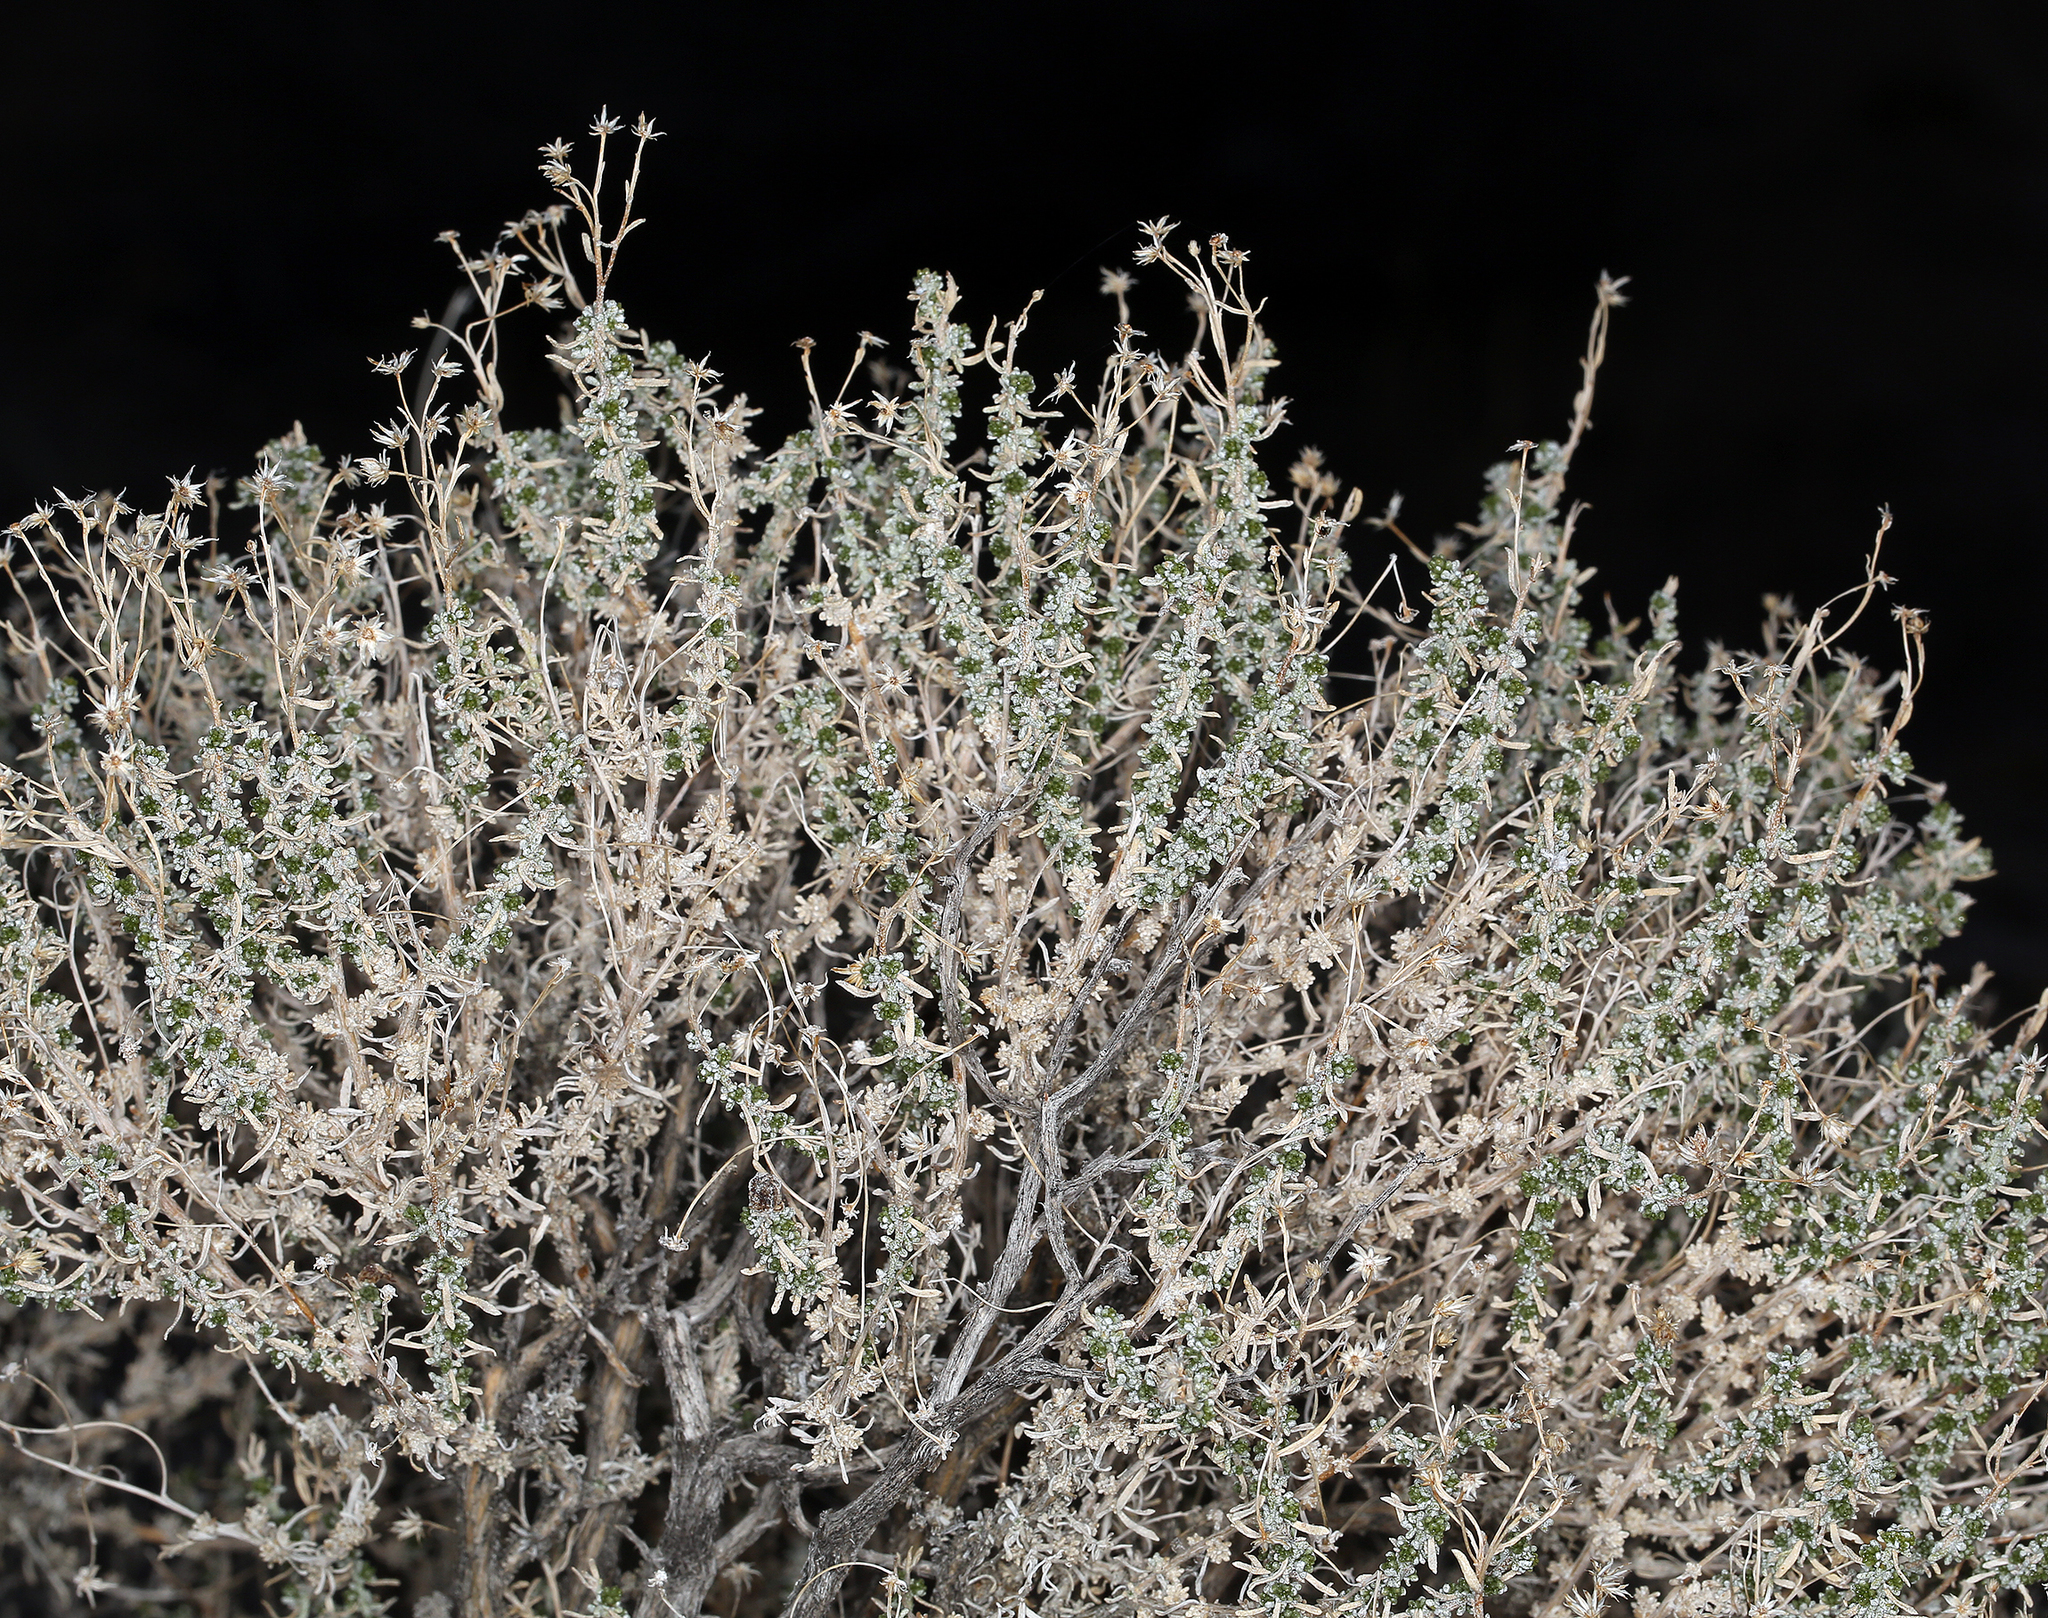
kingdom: Plantae
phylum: Tracheophyta
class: Magnoliopsida
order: Asterales
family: Asteraceae
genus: Ericameria
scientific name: Ericameria cooperi
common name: Cooper's goldenbush
